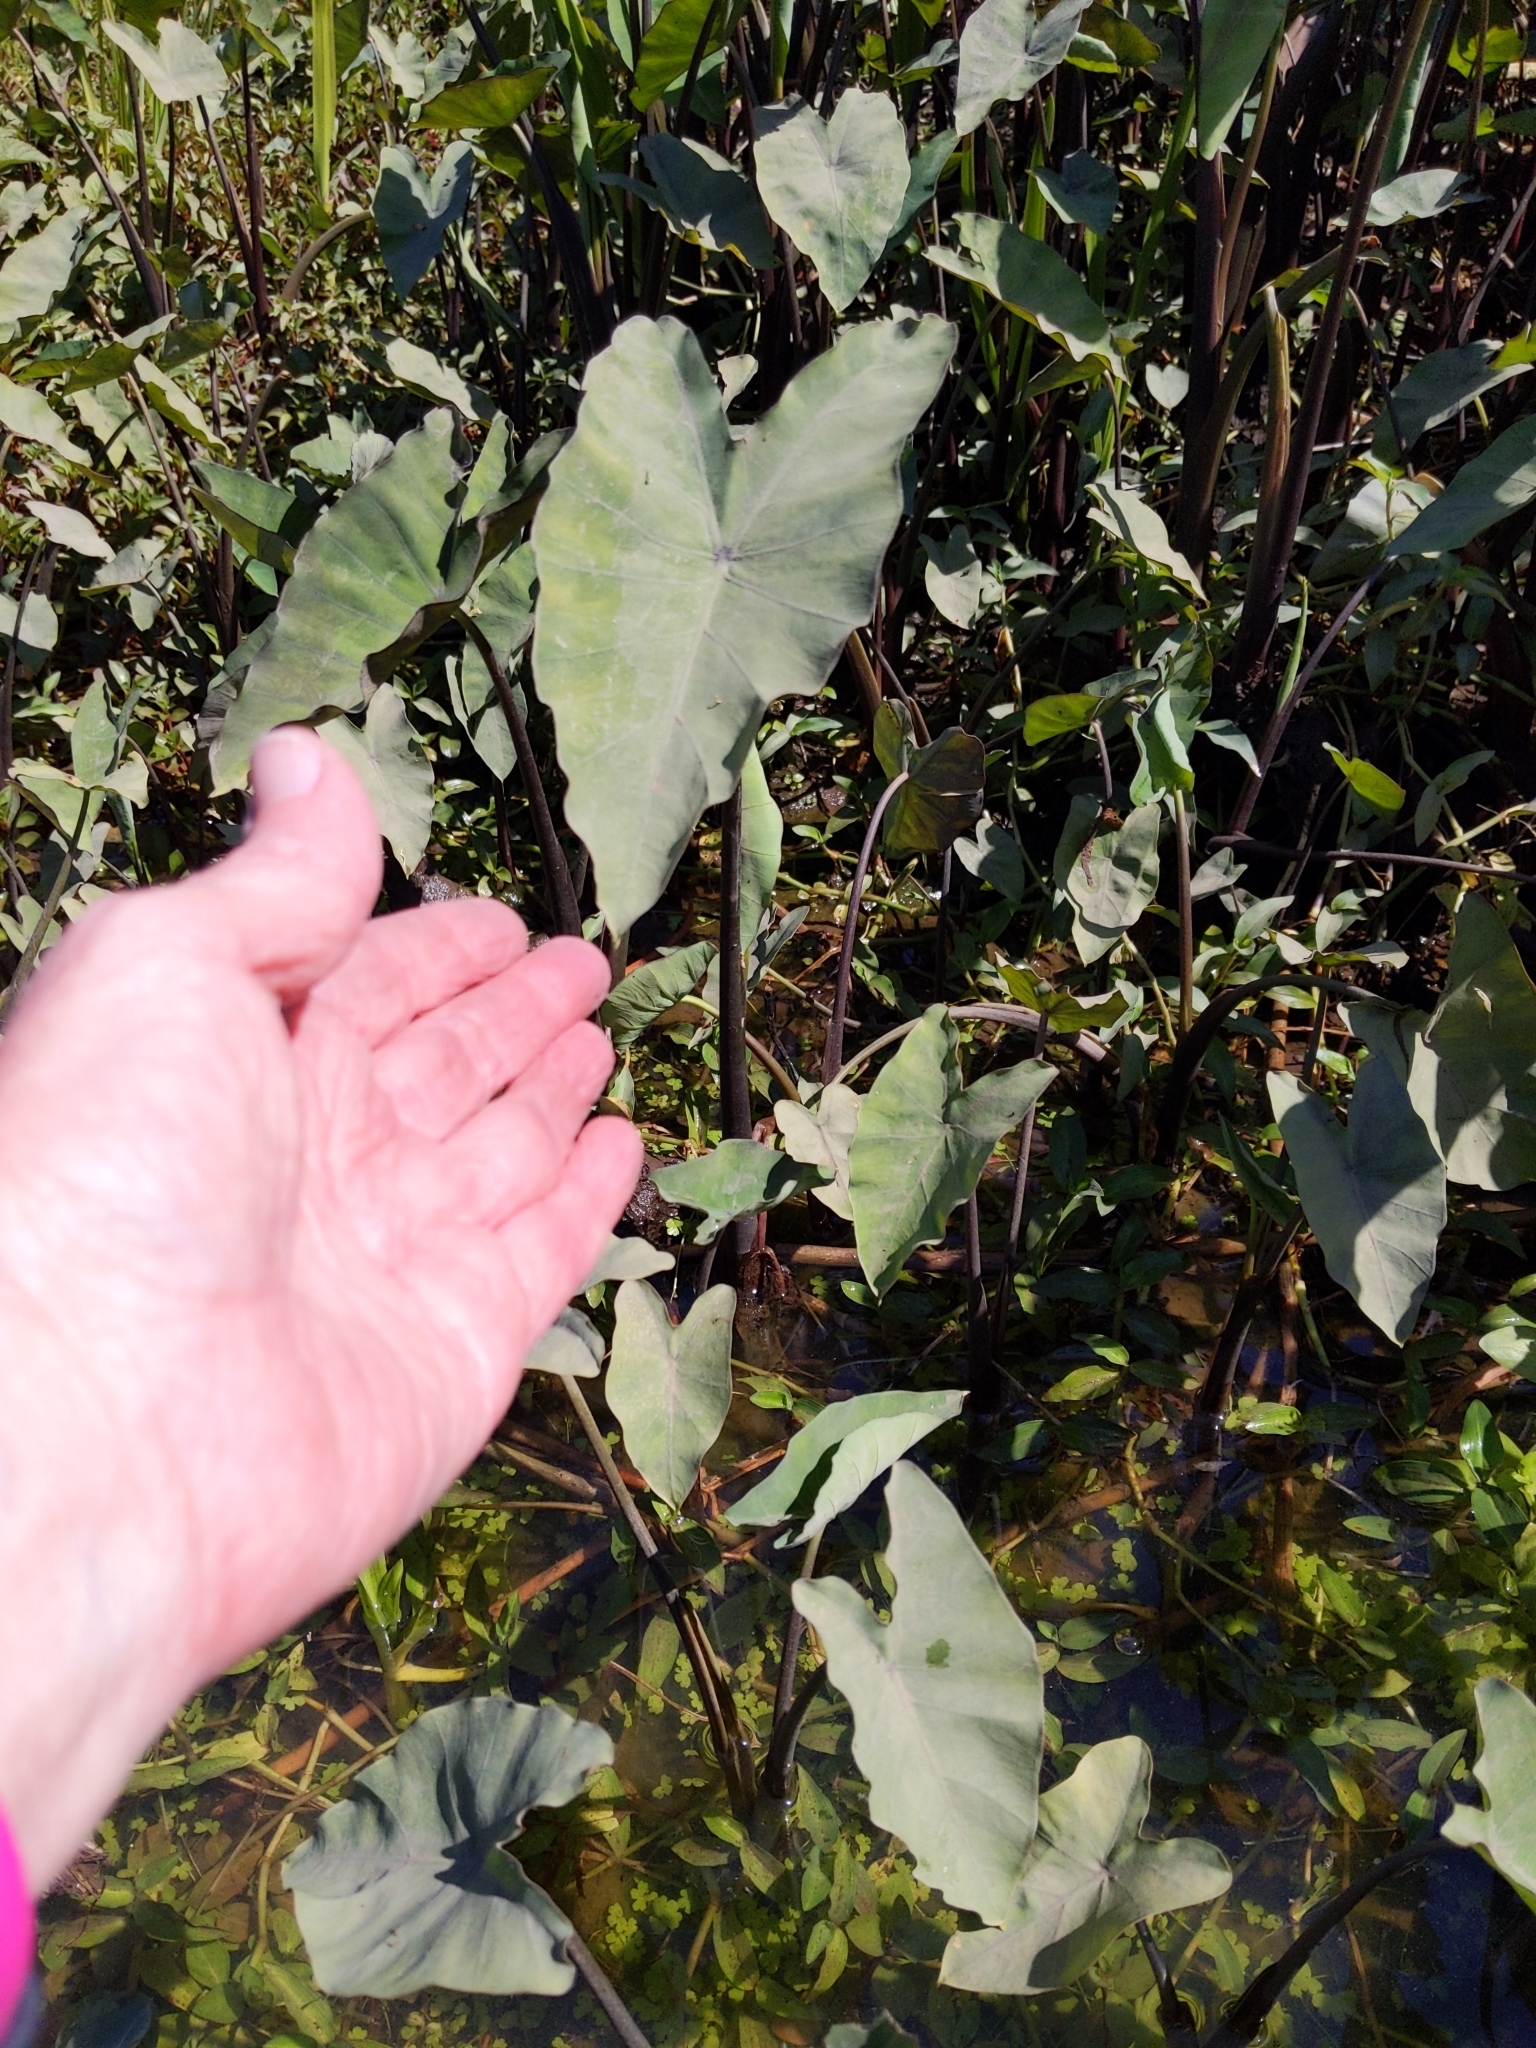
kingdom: Plantae
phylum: Tracheophyta
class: Liliopsida
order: Alismatales
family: Araceae
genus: Colocasia
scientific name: Colocasia esculenta
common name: Taro
